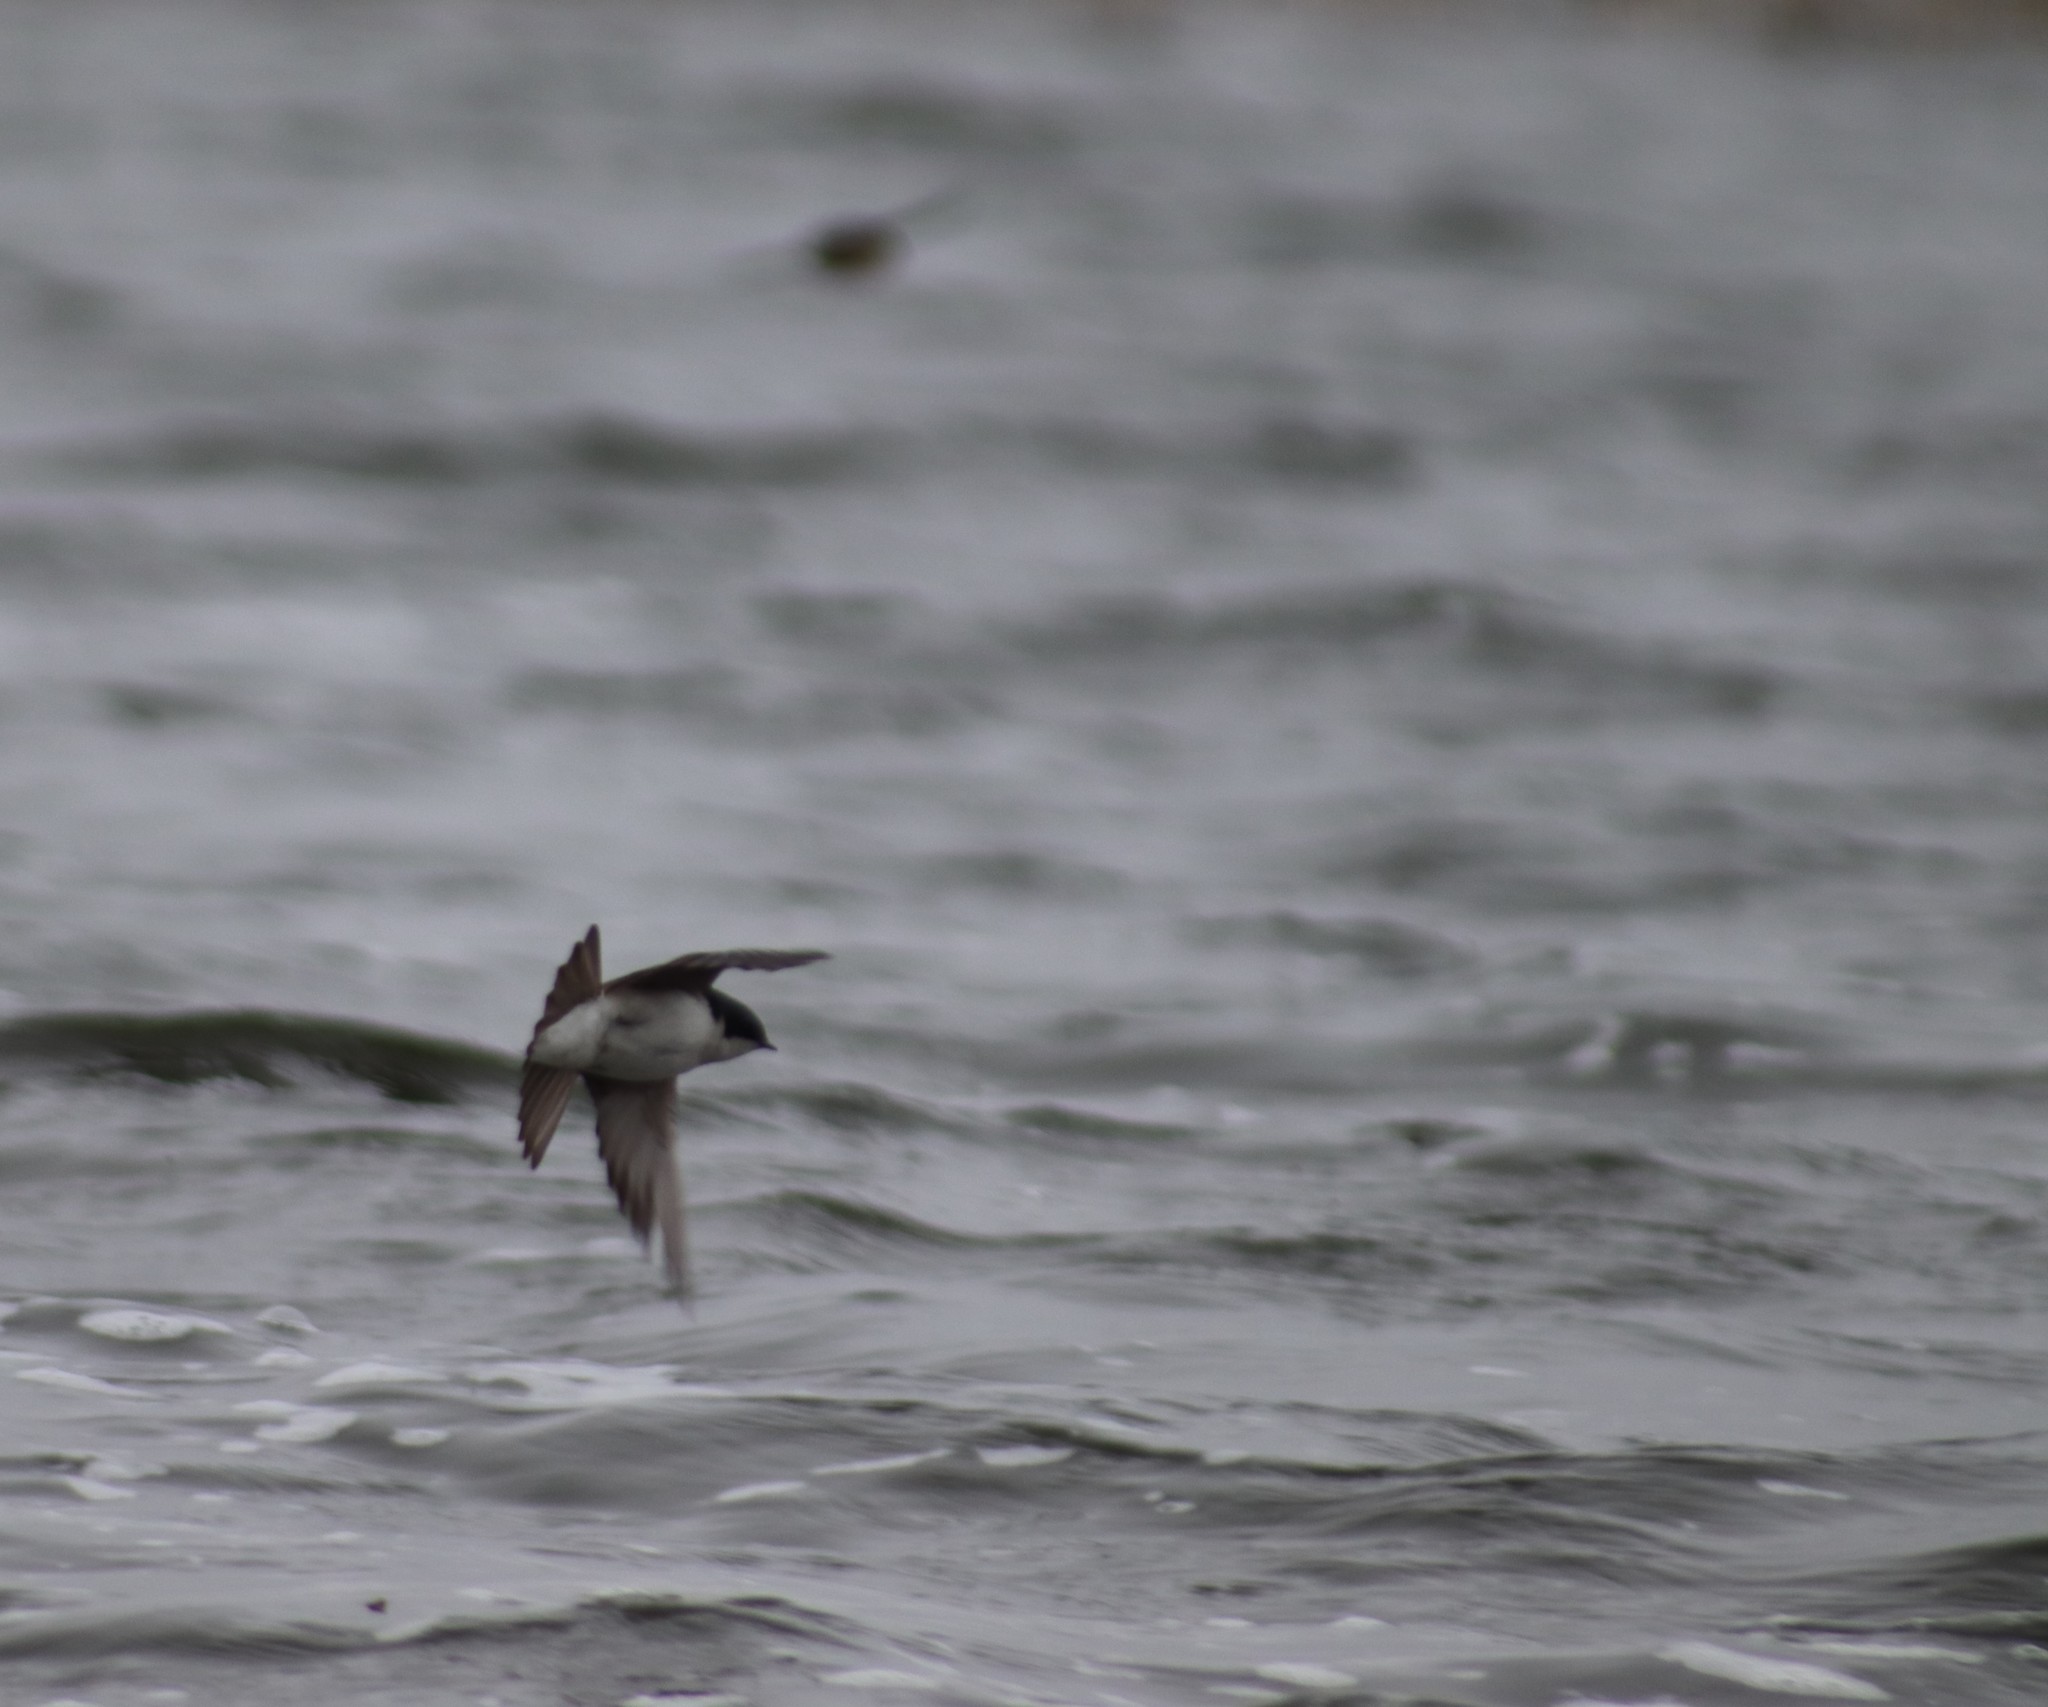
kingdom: Animalia
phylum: Chordata
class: Aves
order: Passeriformes
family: Hirundinidae
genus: Tachycineta
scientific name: Tachycineta bicolor
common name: Tree swallow
